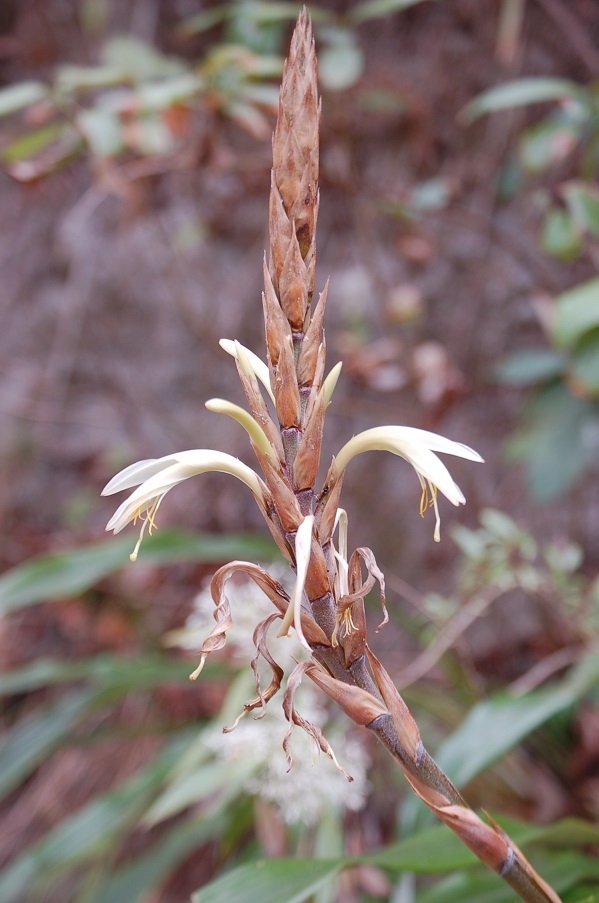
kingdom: Plantae
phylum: Tracheophyta
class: Liliopsida
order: Poales
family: Bromeliaceae
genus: Pitcairnia
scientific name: Pitcairnia recurvata
